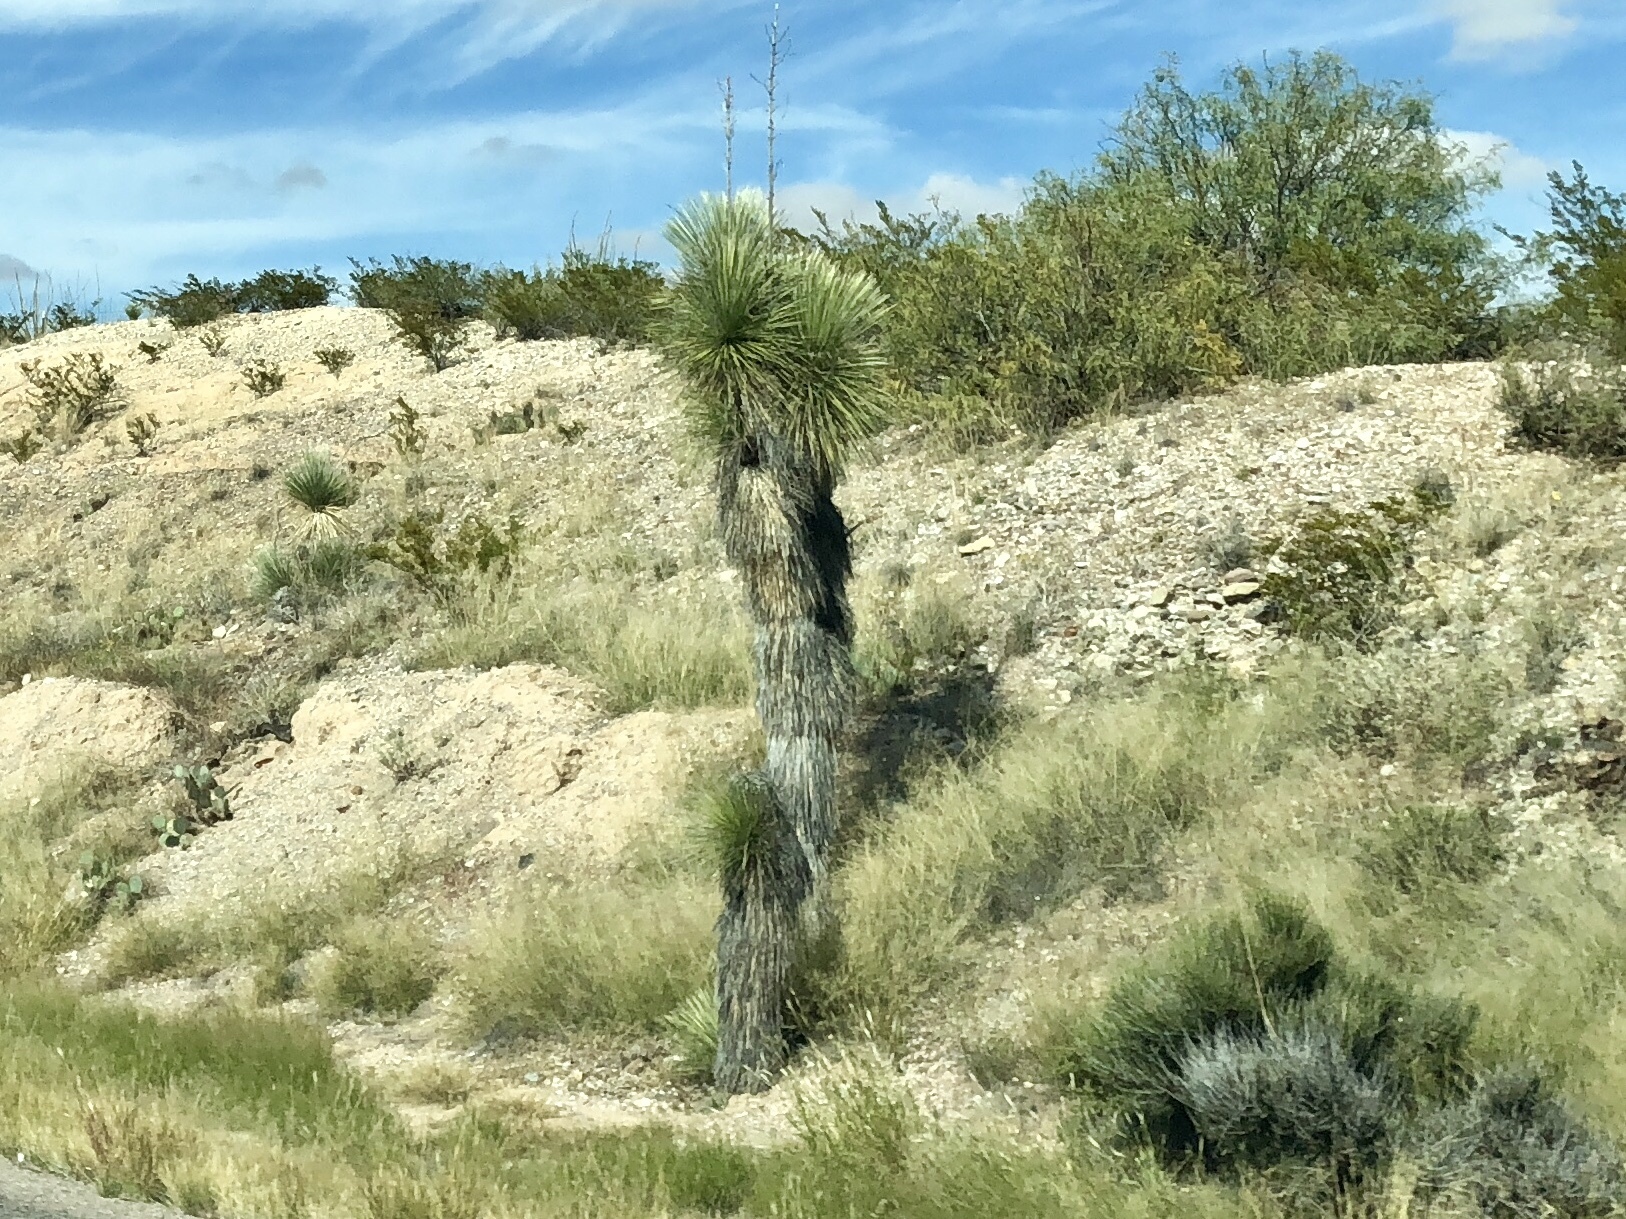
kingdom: Plantae
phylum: Tracheophyta
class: Liliopsida
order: Asparagales
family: Asparagaceae
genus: Yucca
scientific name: Yucca elata
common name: Palmella
